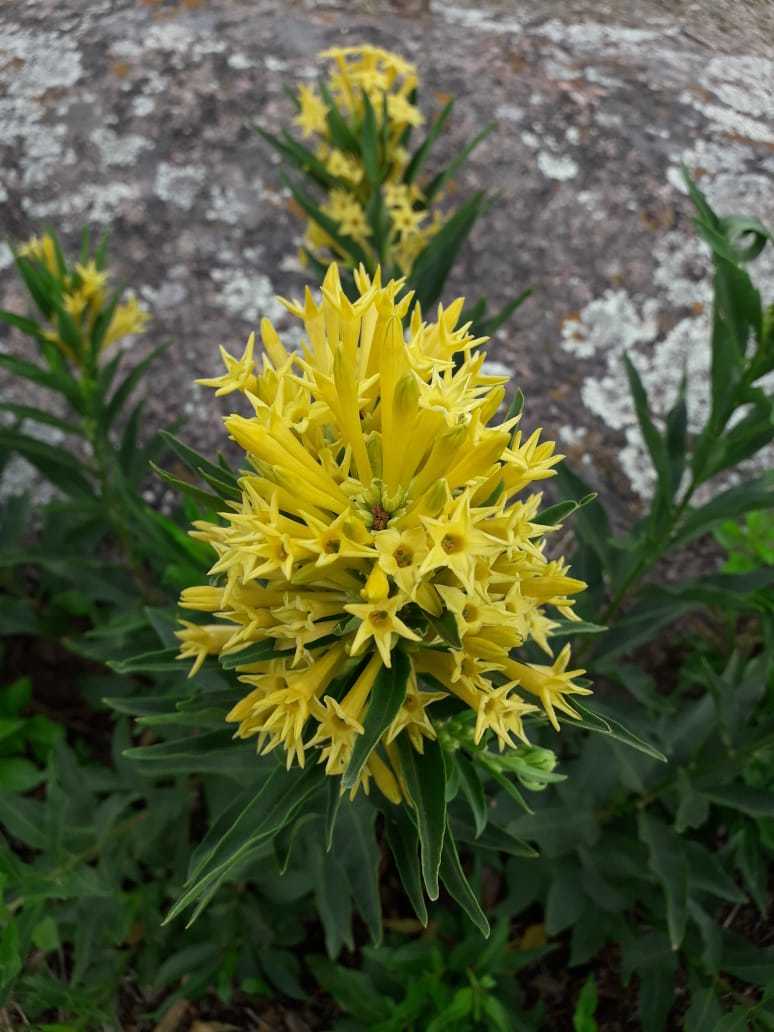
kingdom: Plantae
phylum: Tracheophyta
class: Magnoliopsida
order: Solanales
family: Solanaceae
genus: Cestrum
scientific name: Cestrum parqui
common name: Chilean cestrum
